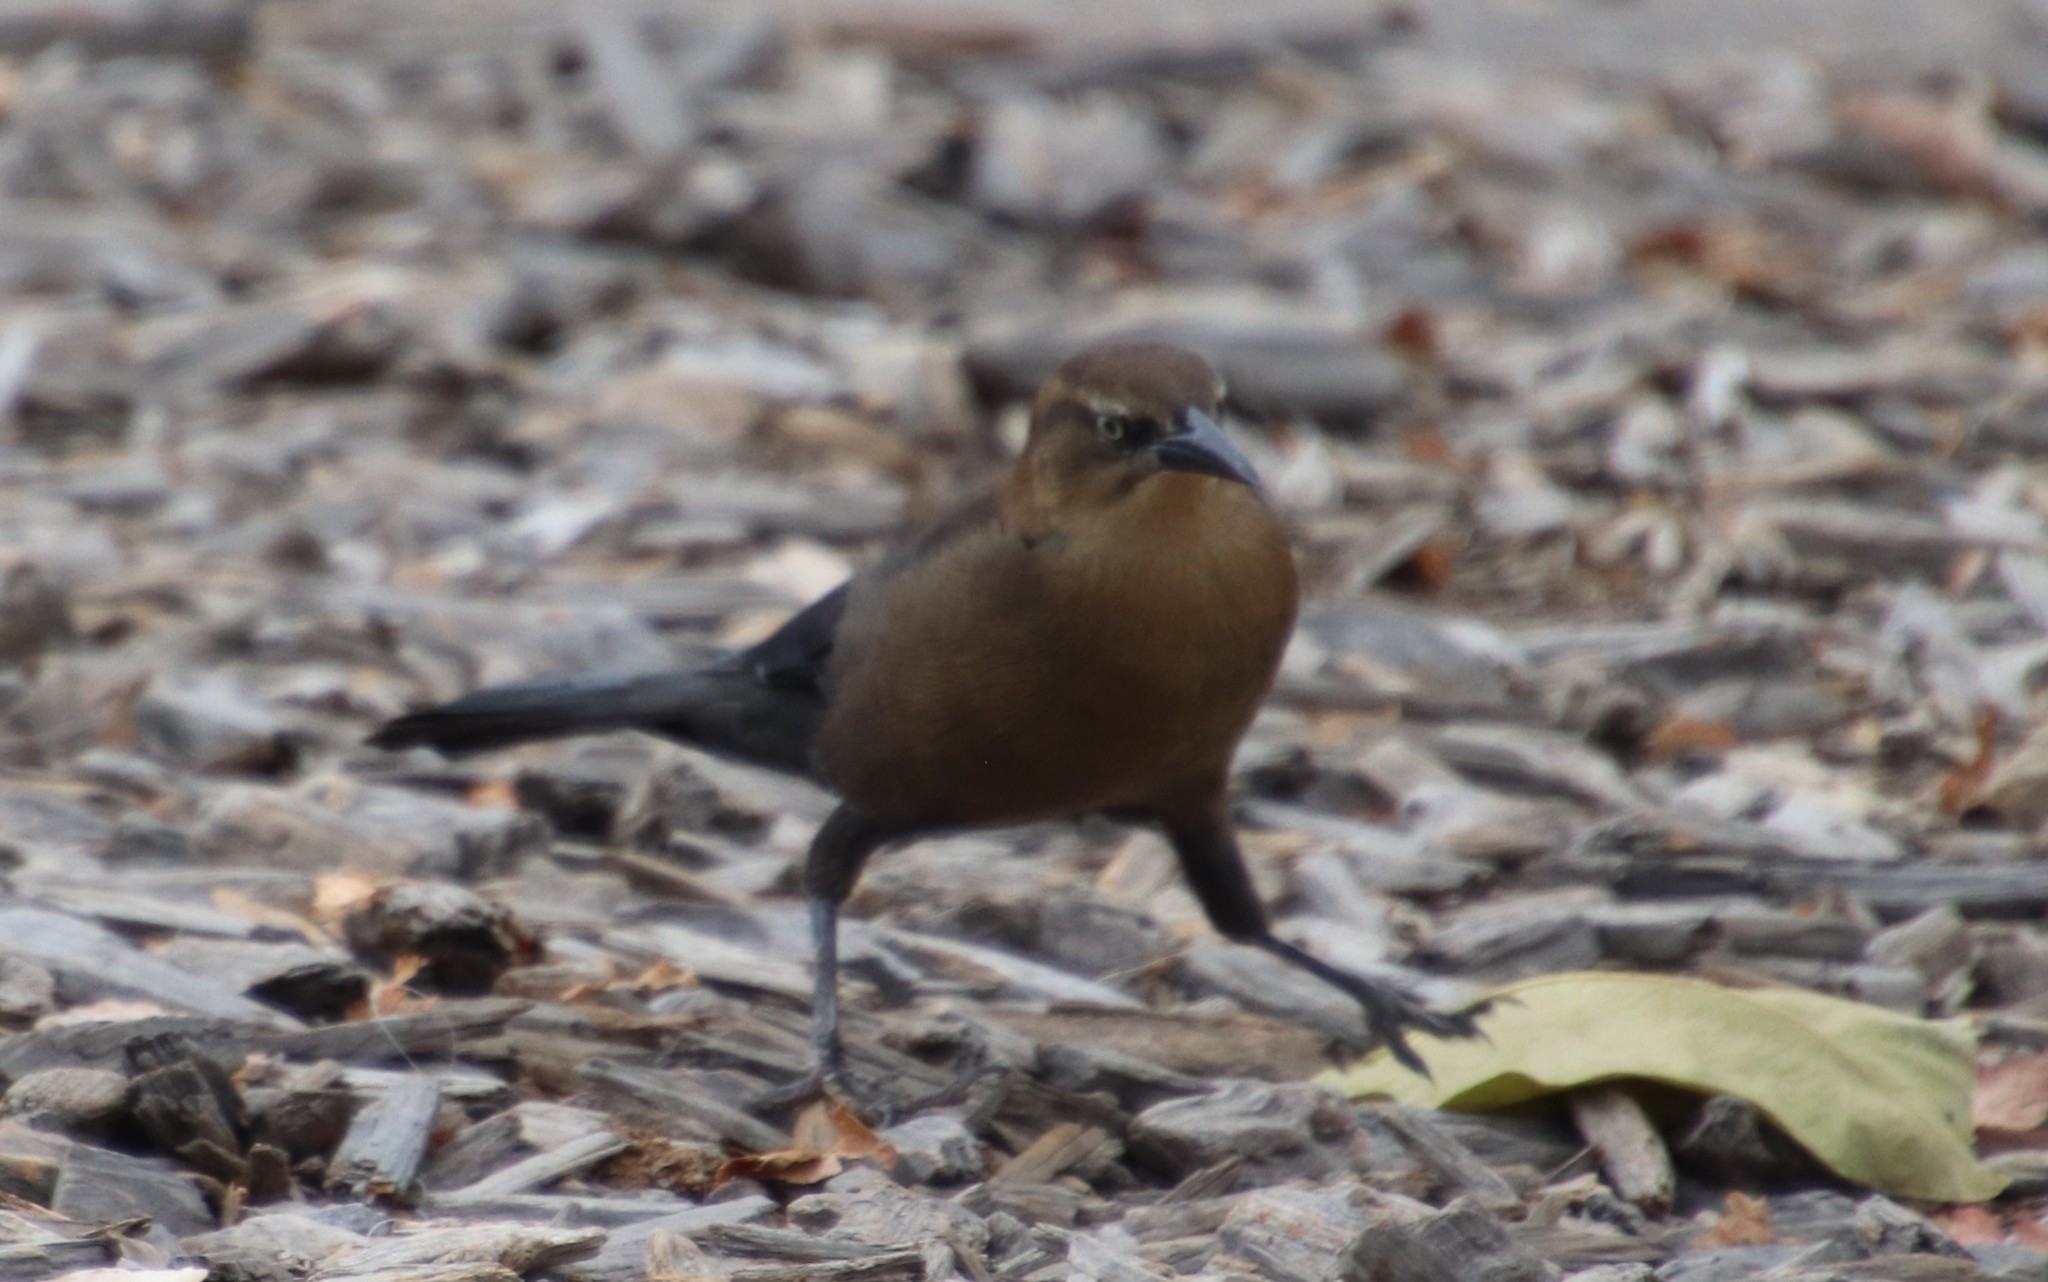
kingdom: Animalia
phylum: Chordata
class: Aves
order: Passeriformes
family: Icteridae
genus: Quiscalus
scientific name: Quiscalus mexicanus
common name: Great-tailed grackle
